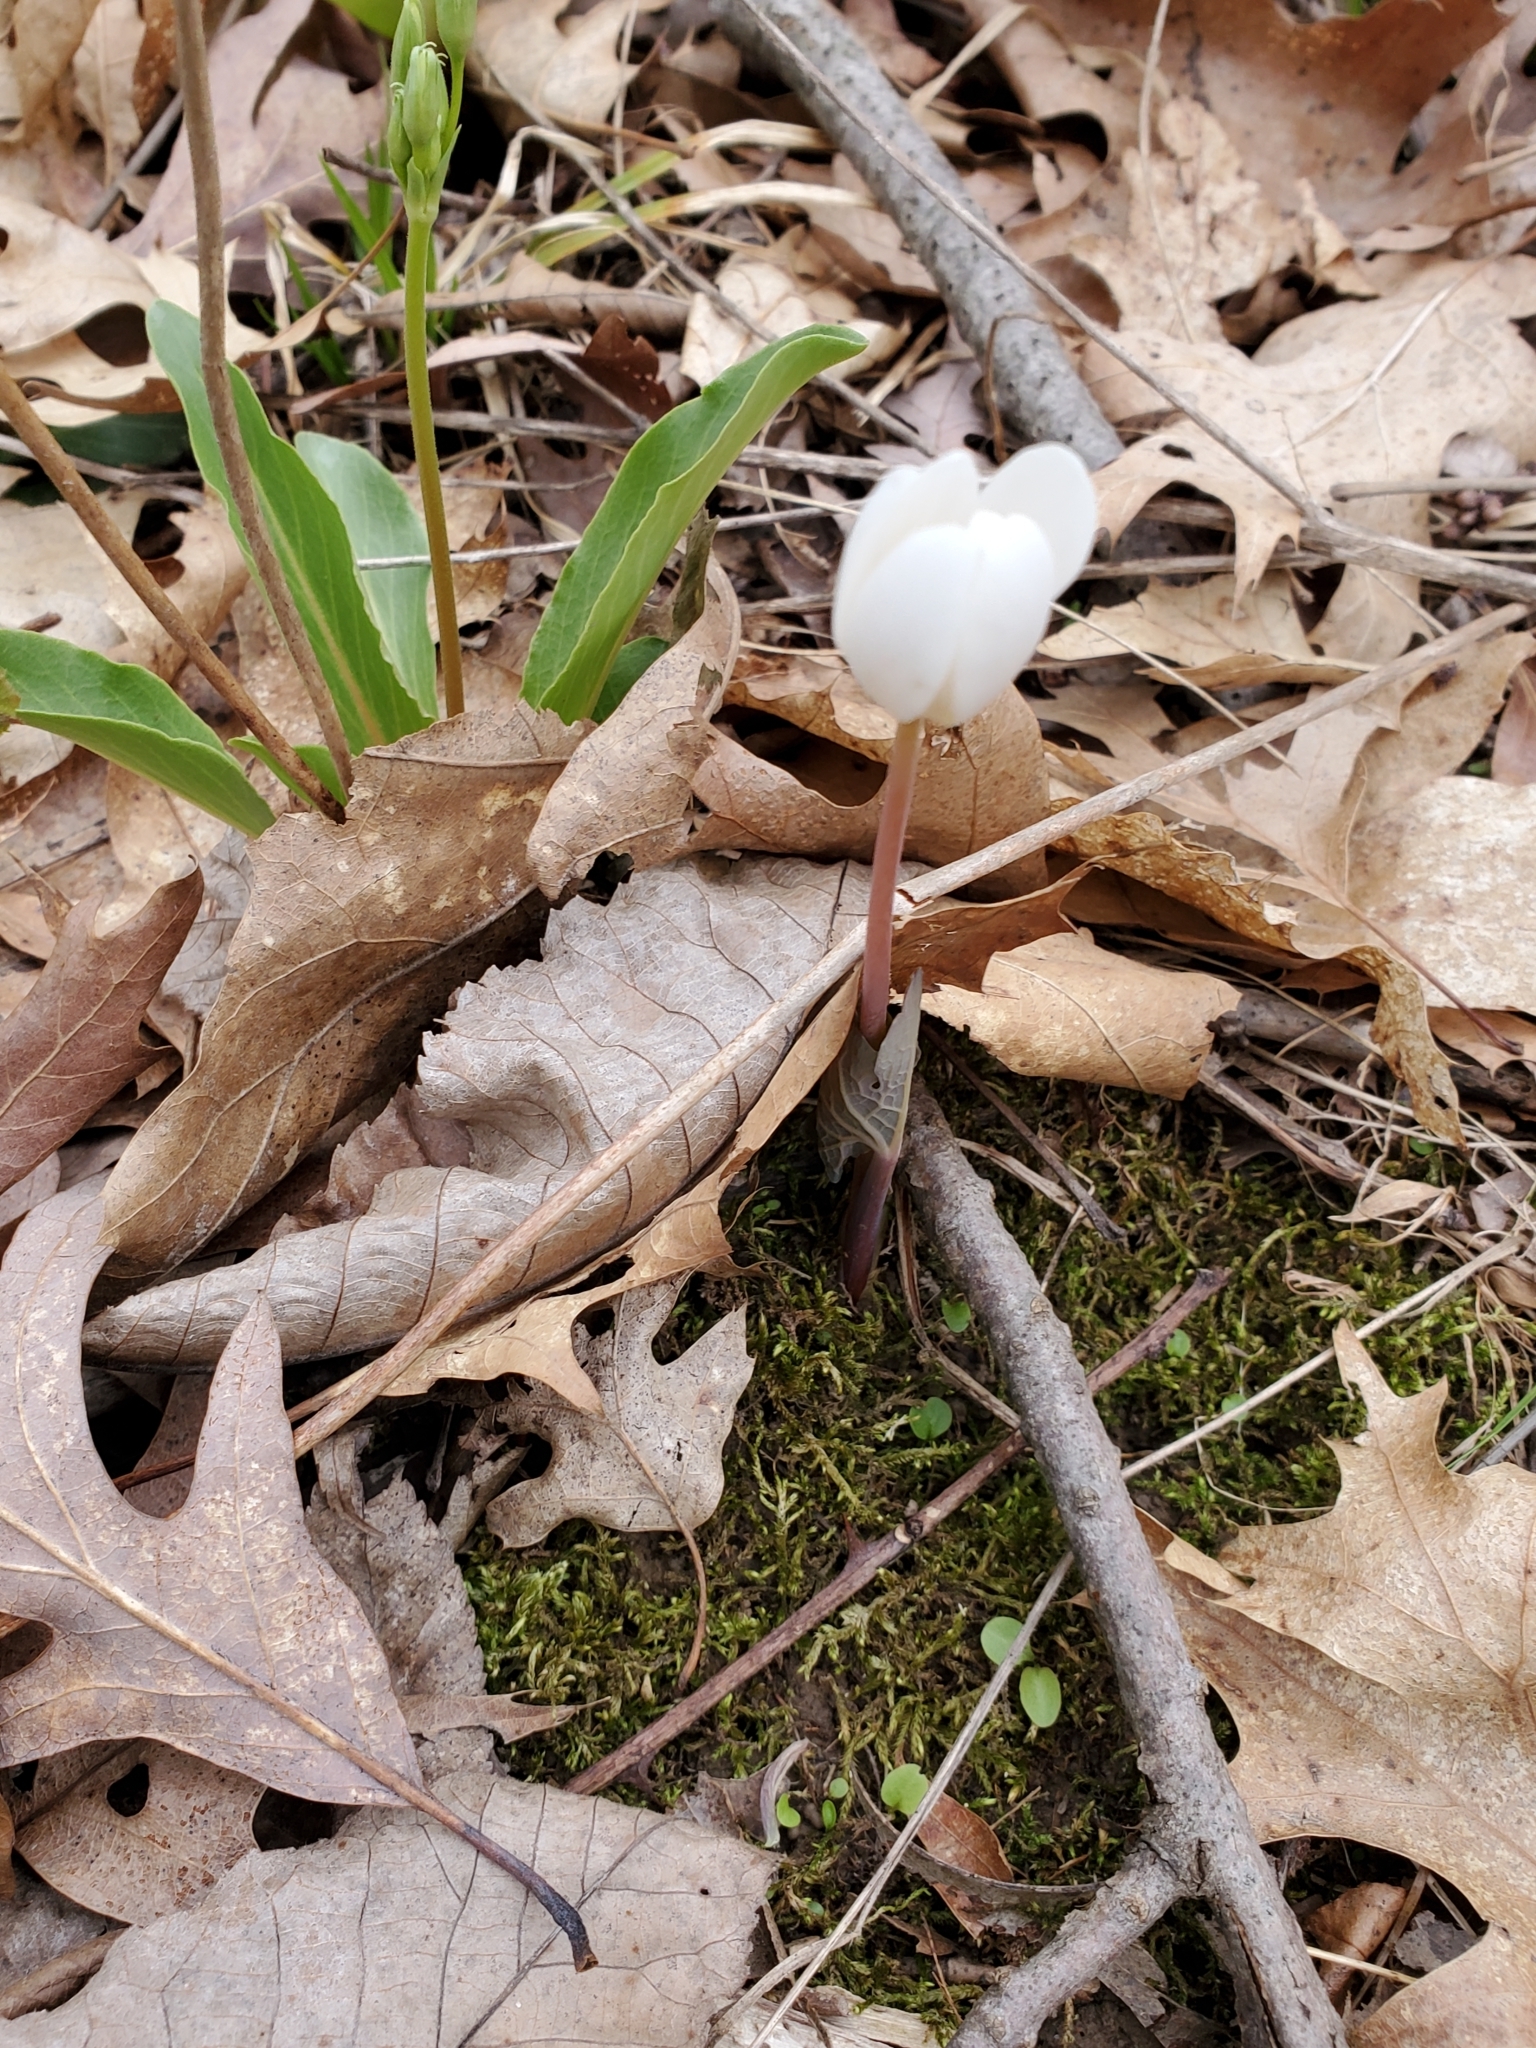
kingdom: Plantae
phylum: Tracheophyta
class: Magnoliopsida
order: Ranunculales
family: Papaveraceae
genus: Sanguinaria
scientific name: Sanguinaria canadensis
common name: Bloodroot
